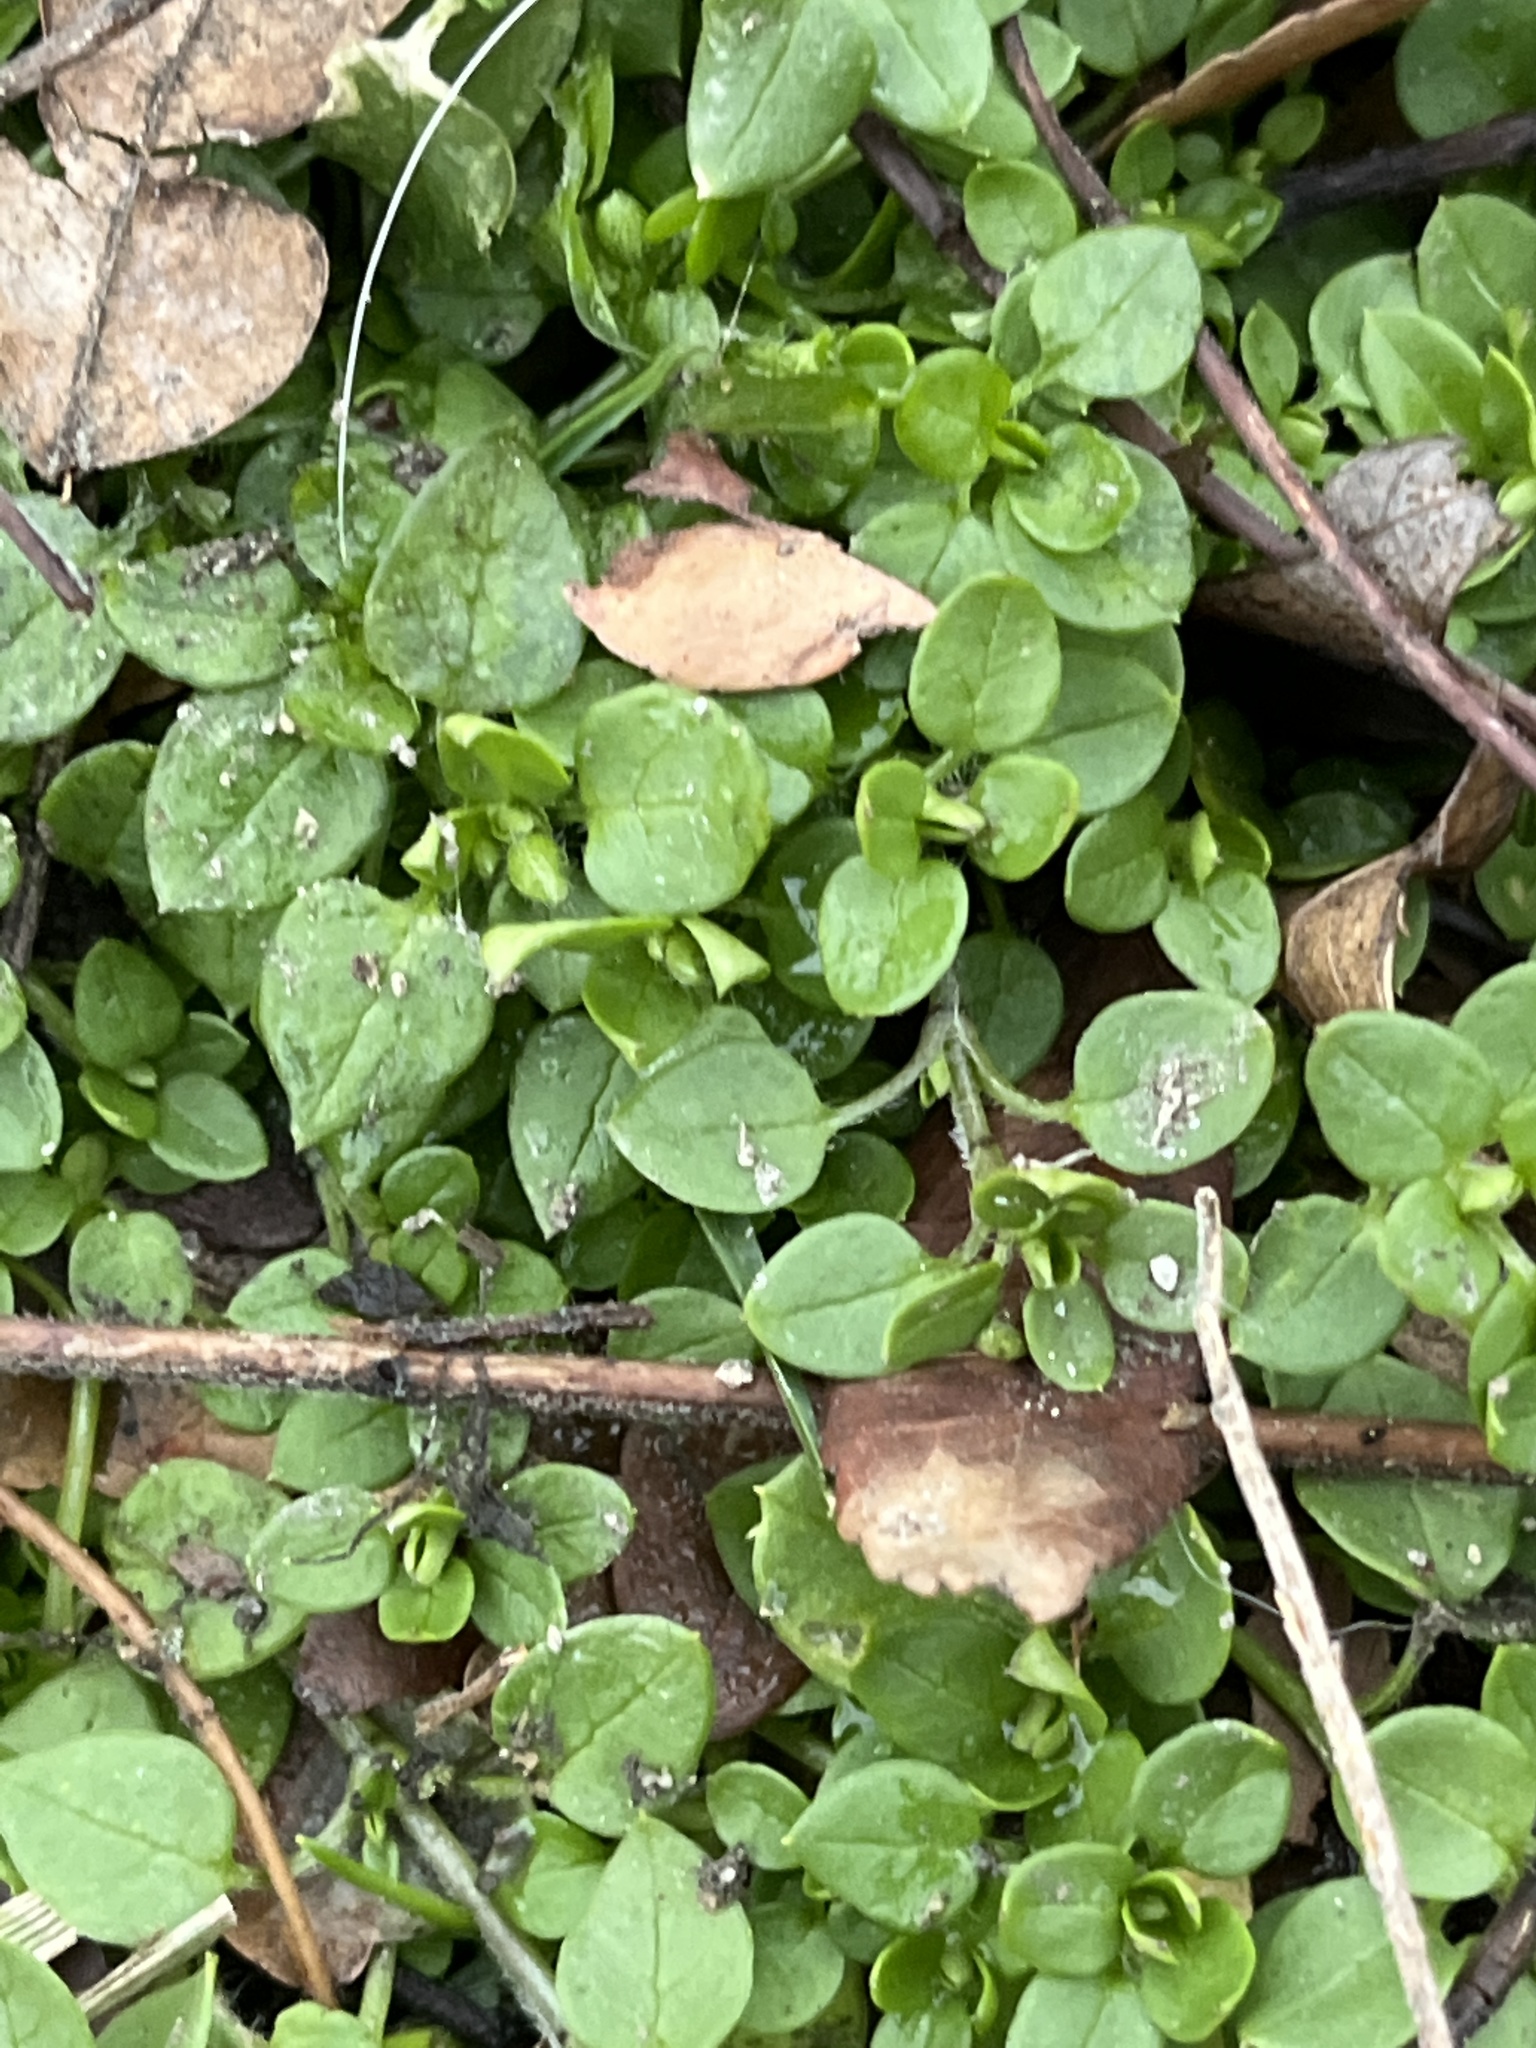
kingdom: Plantae
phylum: Tracheophyta
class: Magnoliopsida
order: Caryophyllales
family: Caryophyllaceae
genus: Stellaria
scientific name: Stellaria media
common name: Common chickweed
